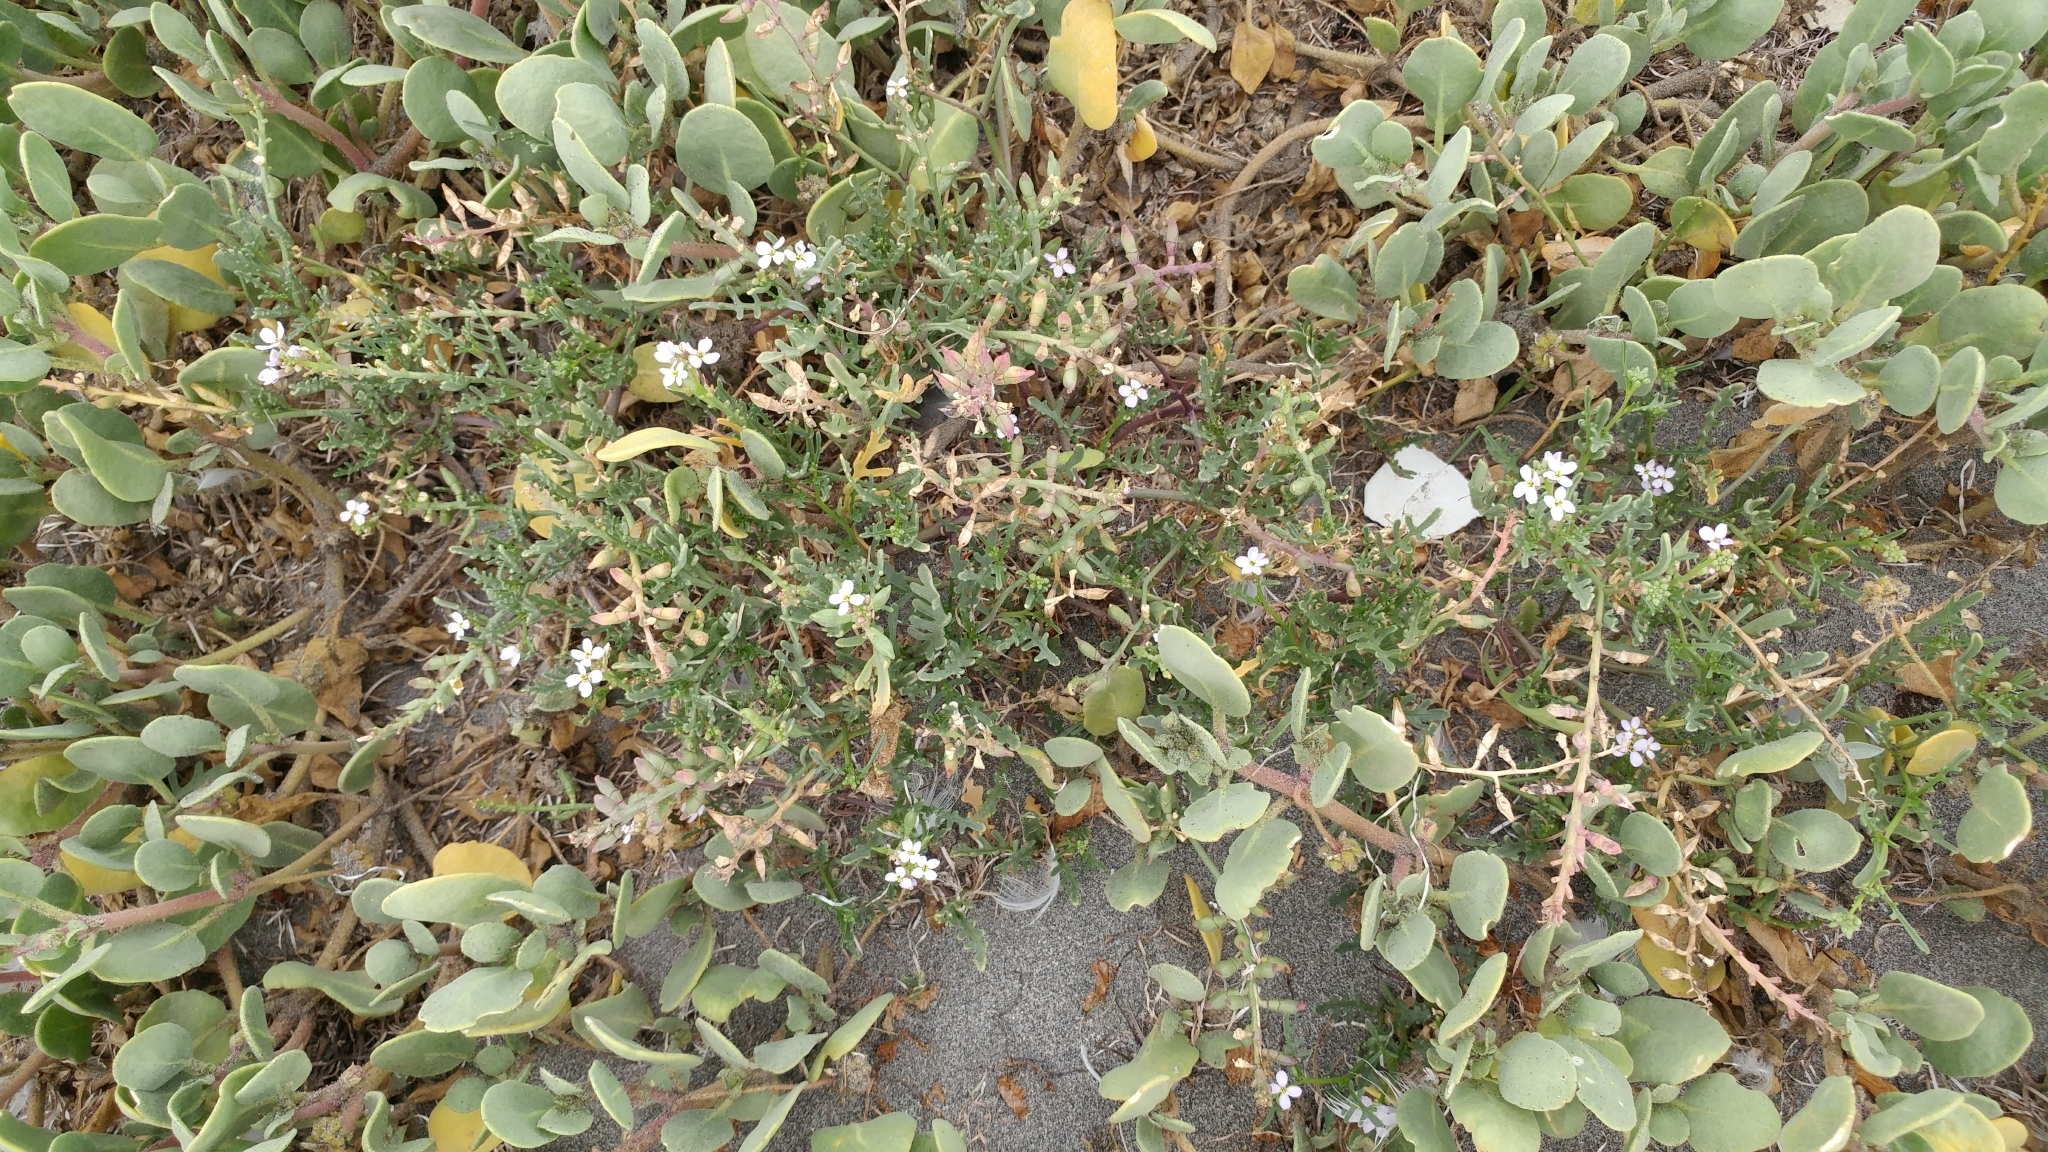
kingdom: Plantae
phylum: Tracheophyta
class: Magnoliopsida
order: Brassicales
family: Brassicaceae
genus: Cakile
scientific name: Cakile maritima
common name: Sea rocket
